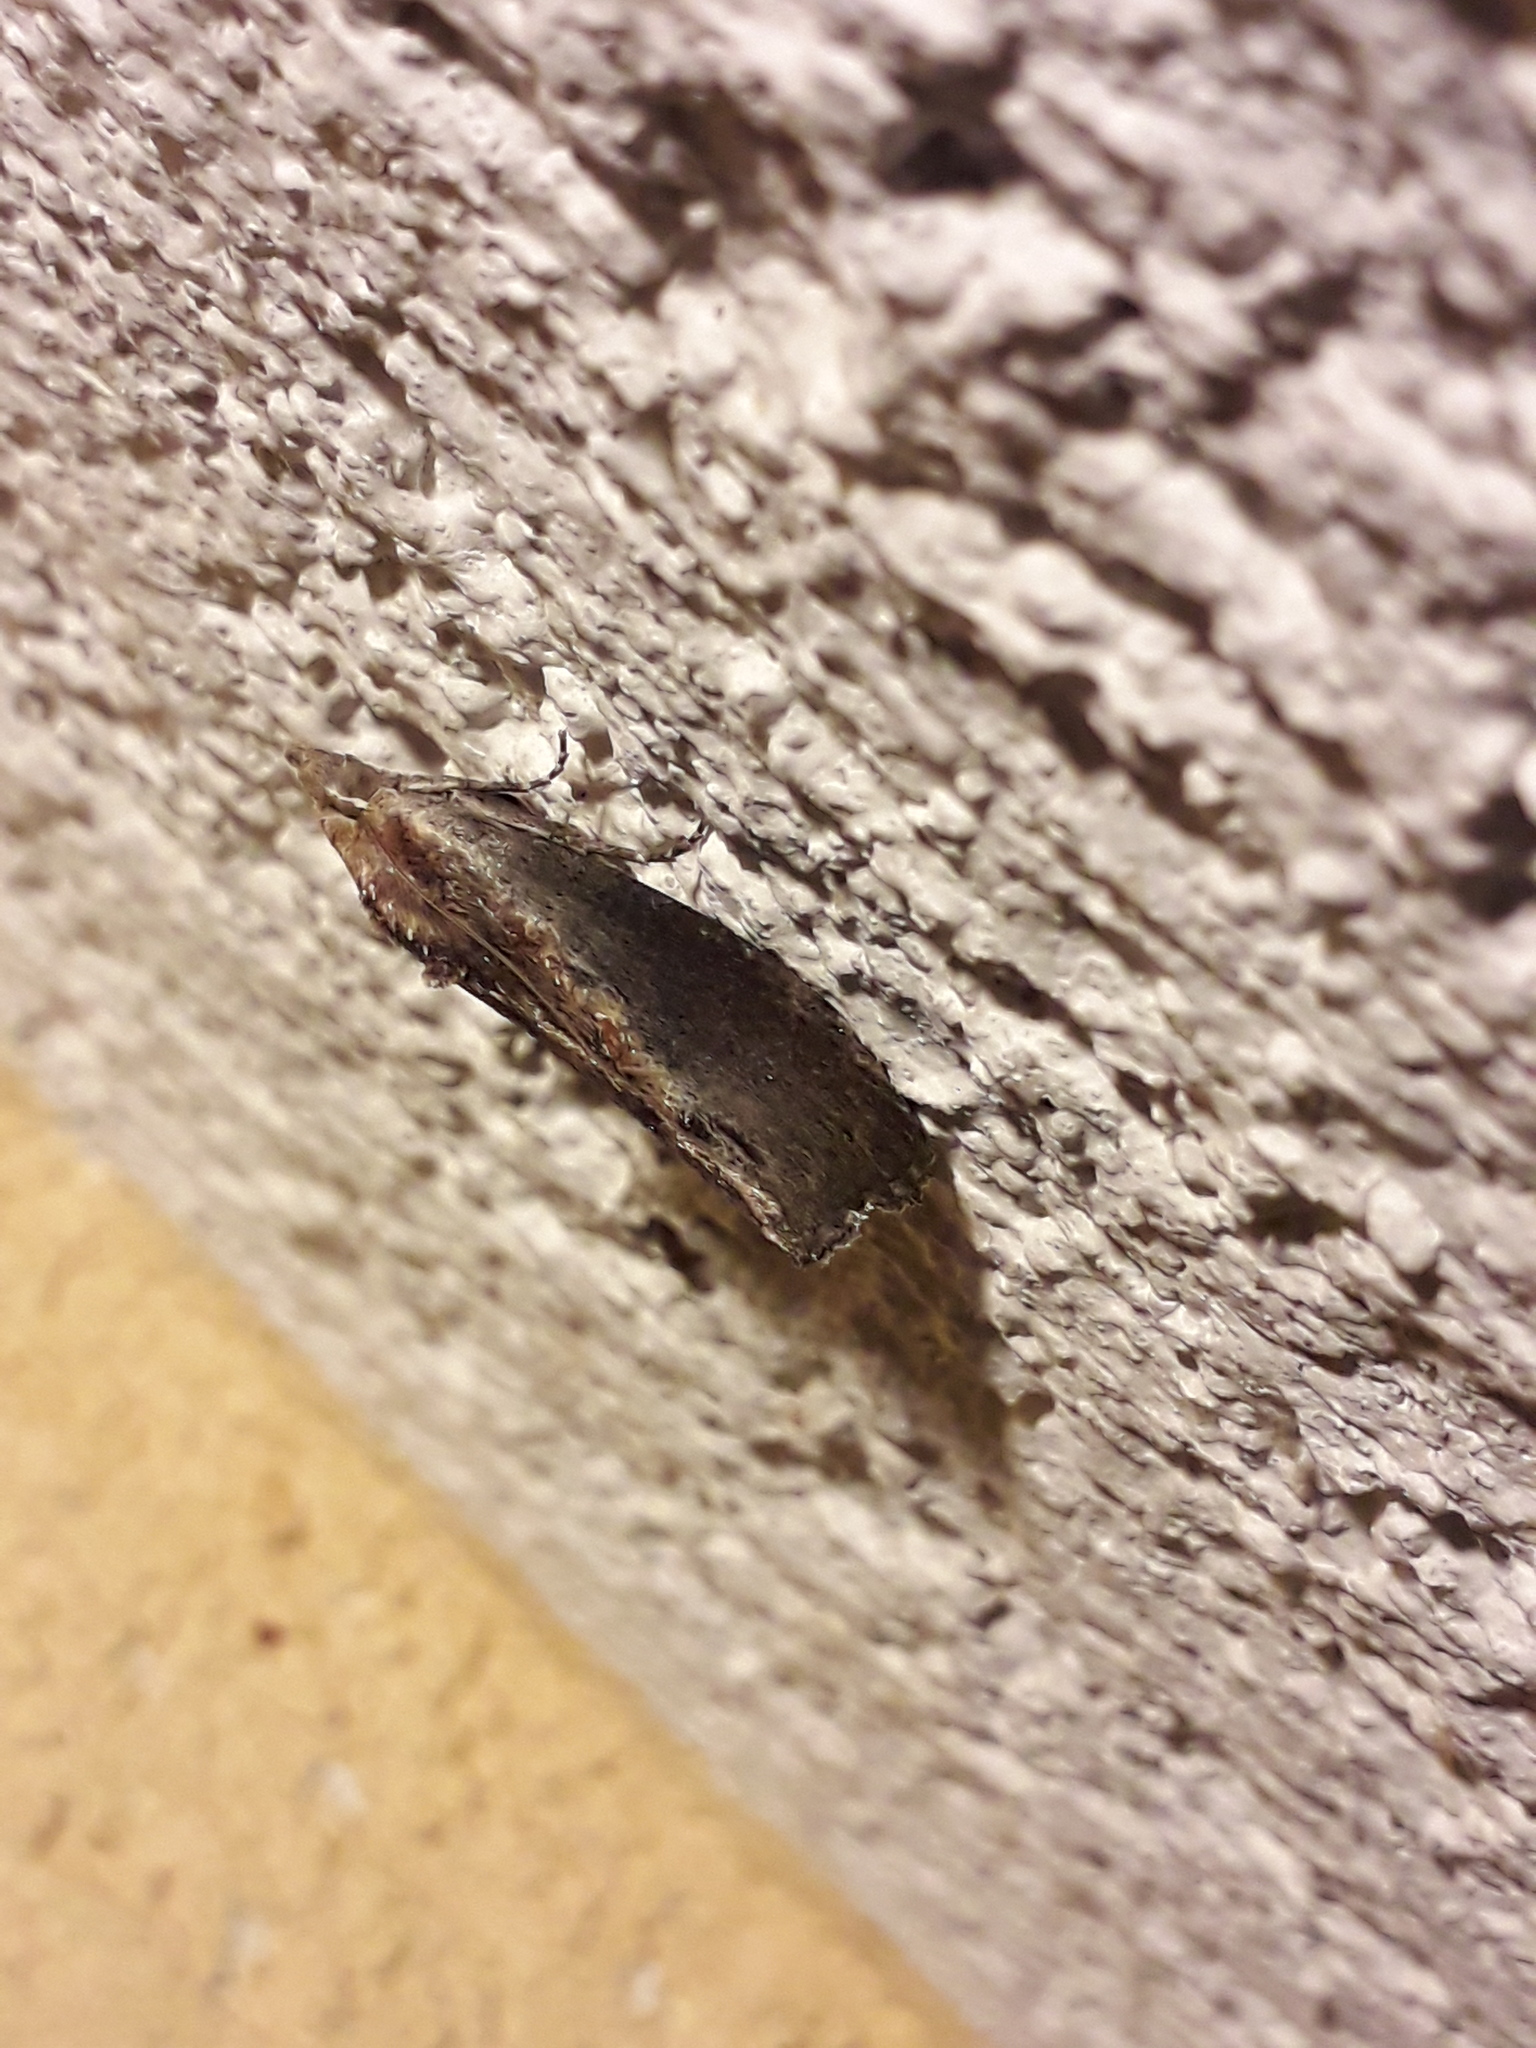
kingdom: Animalia
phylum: Arthropoda
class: Insecta
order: Lepidoptera
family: Pyralidae
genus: Galleria
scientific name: Galleria mellonella
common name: Greater wax moth
